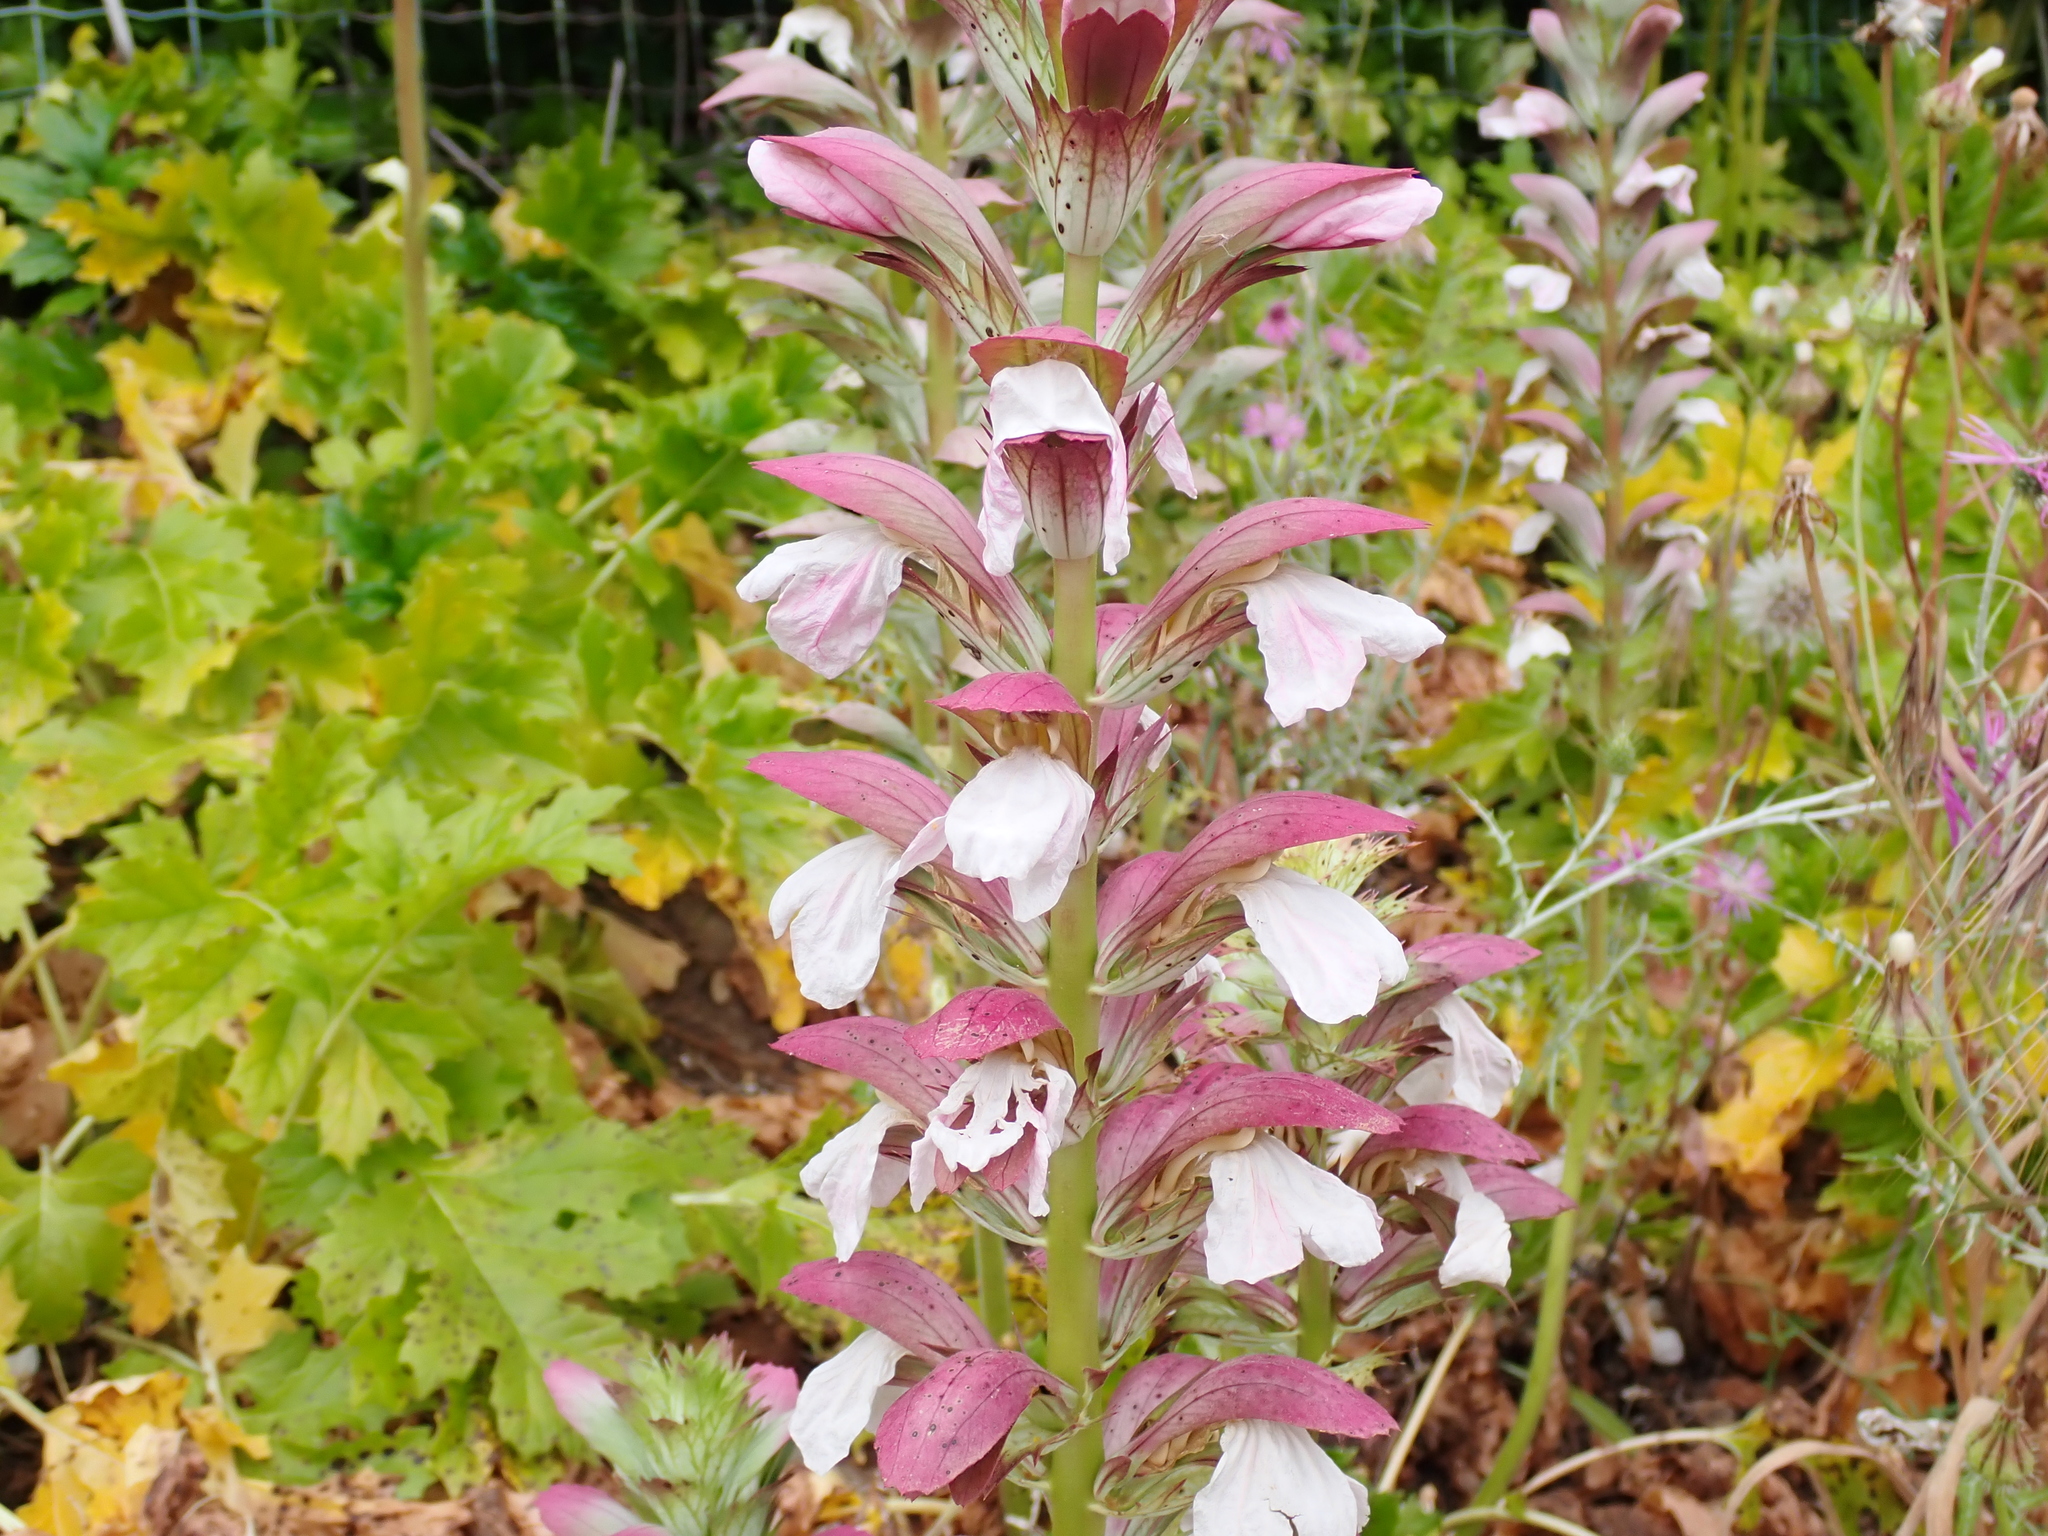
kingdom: Plantae
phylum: Tracheophyta
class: Magnoliopsida
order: Lamiales
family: Acanthaceae
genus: Acanthus
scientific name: Acanthus mollis
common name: Bear's-breech
